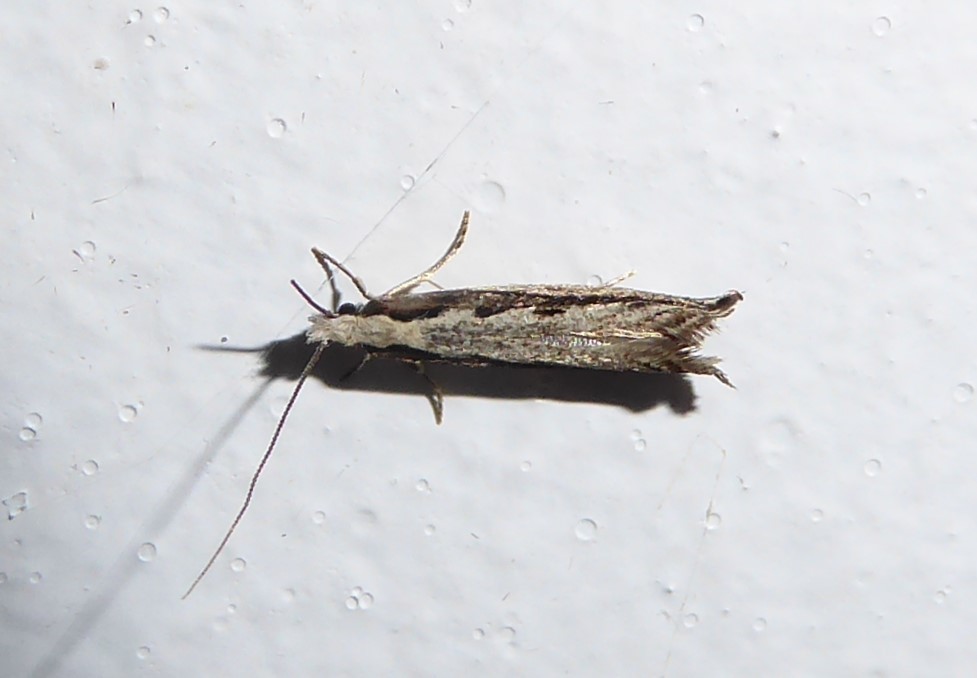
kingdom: Animalia
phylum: Arthropoda
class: Insecta
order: Lepidoptera
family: Tineidae
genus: Erechthias
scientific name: Erechthias fulguritella
